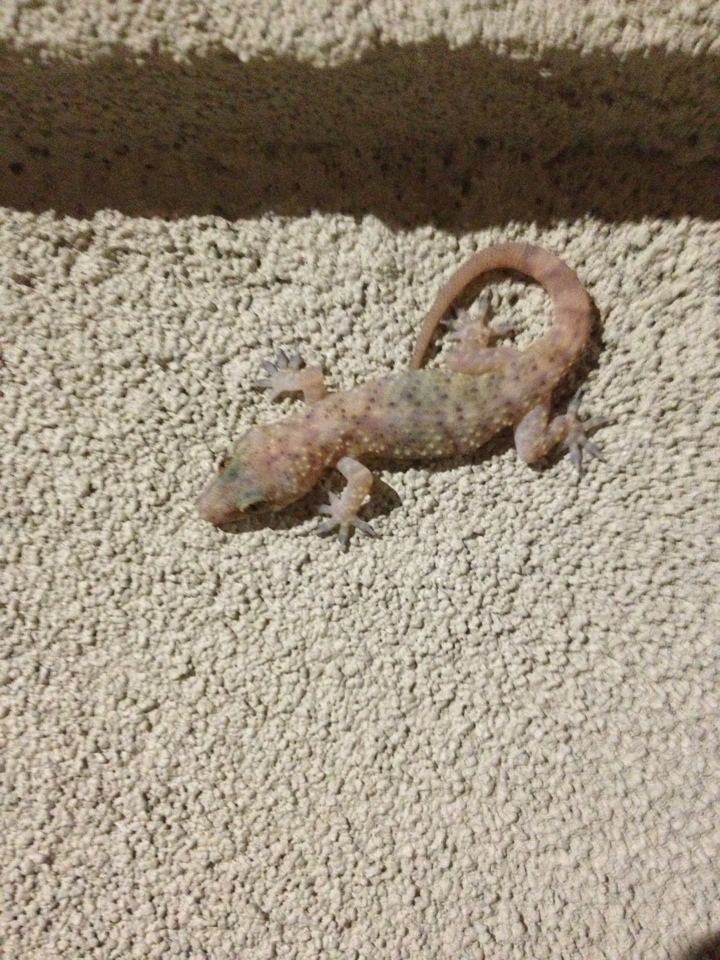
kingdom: Animalia
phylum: Chordata
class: Squamata
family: Gekkonidae
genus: Hemidactylus
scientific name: Hemidactylus turcicus
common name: Turkish gecko
